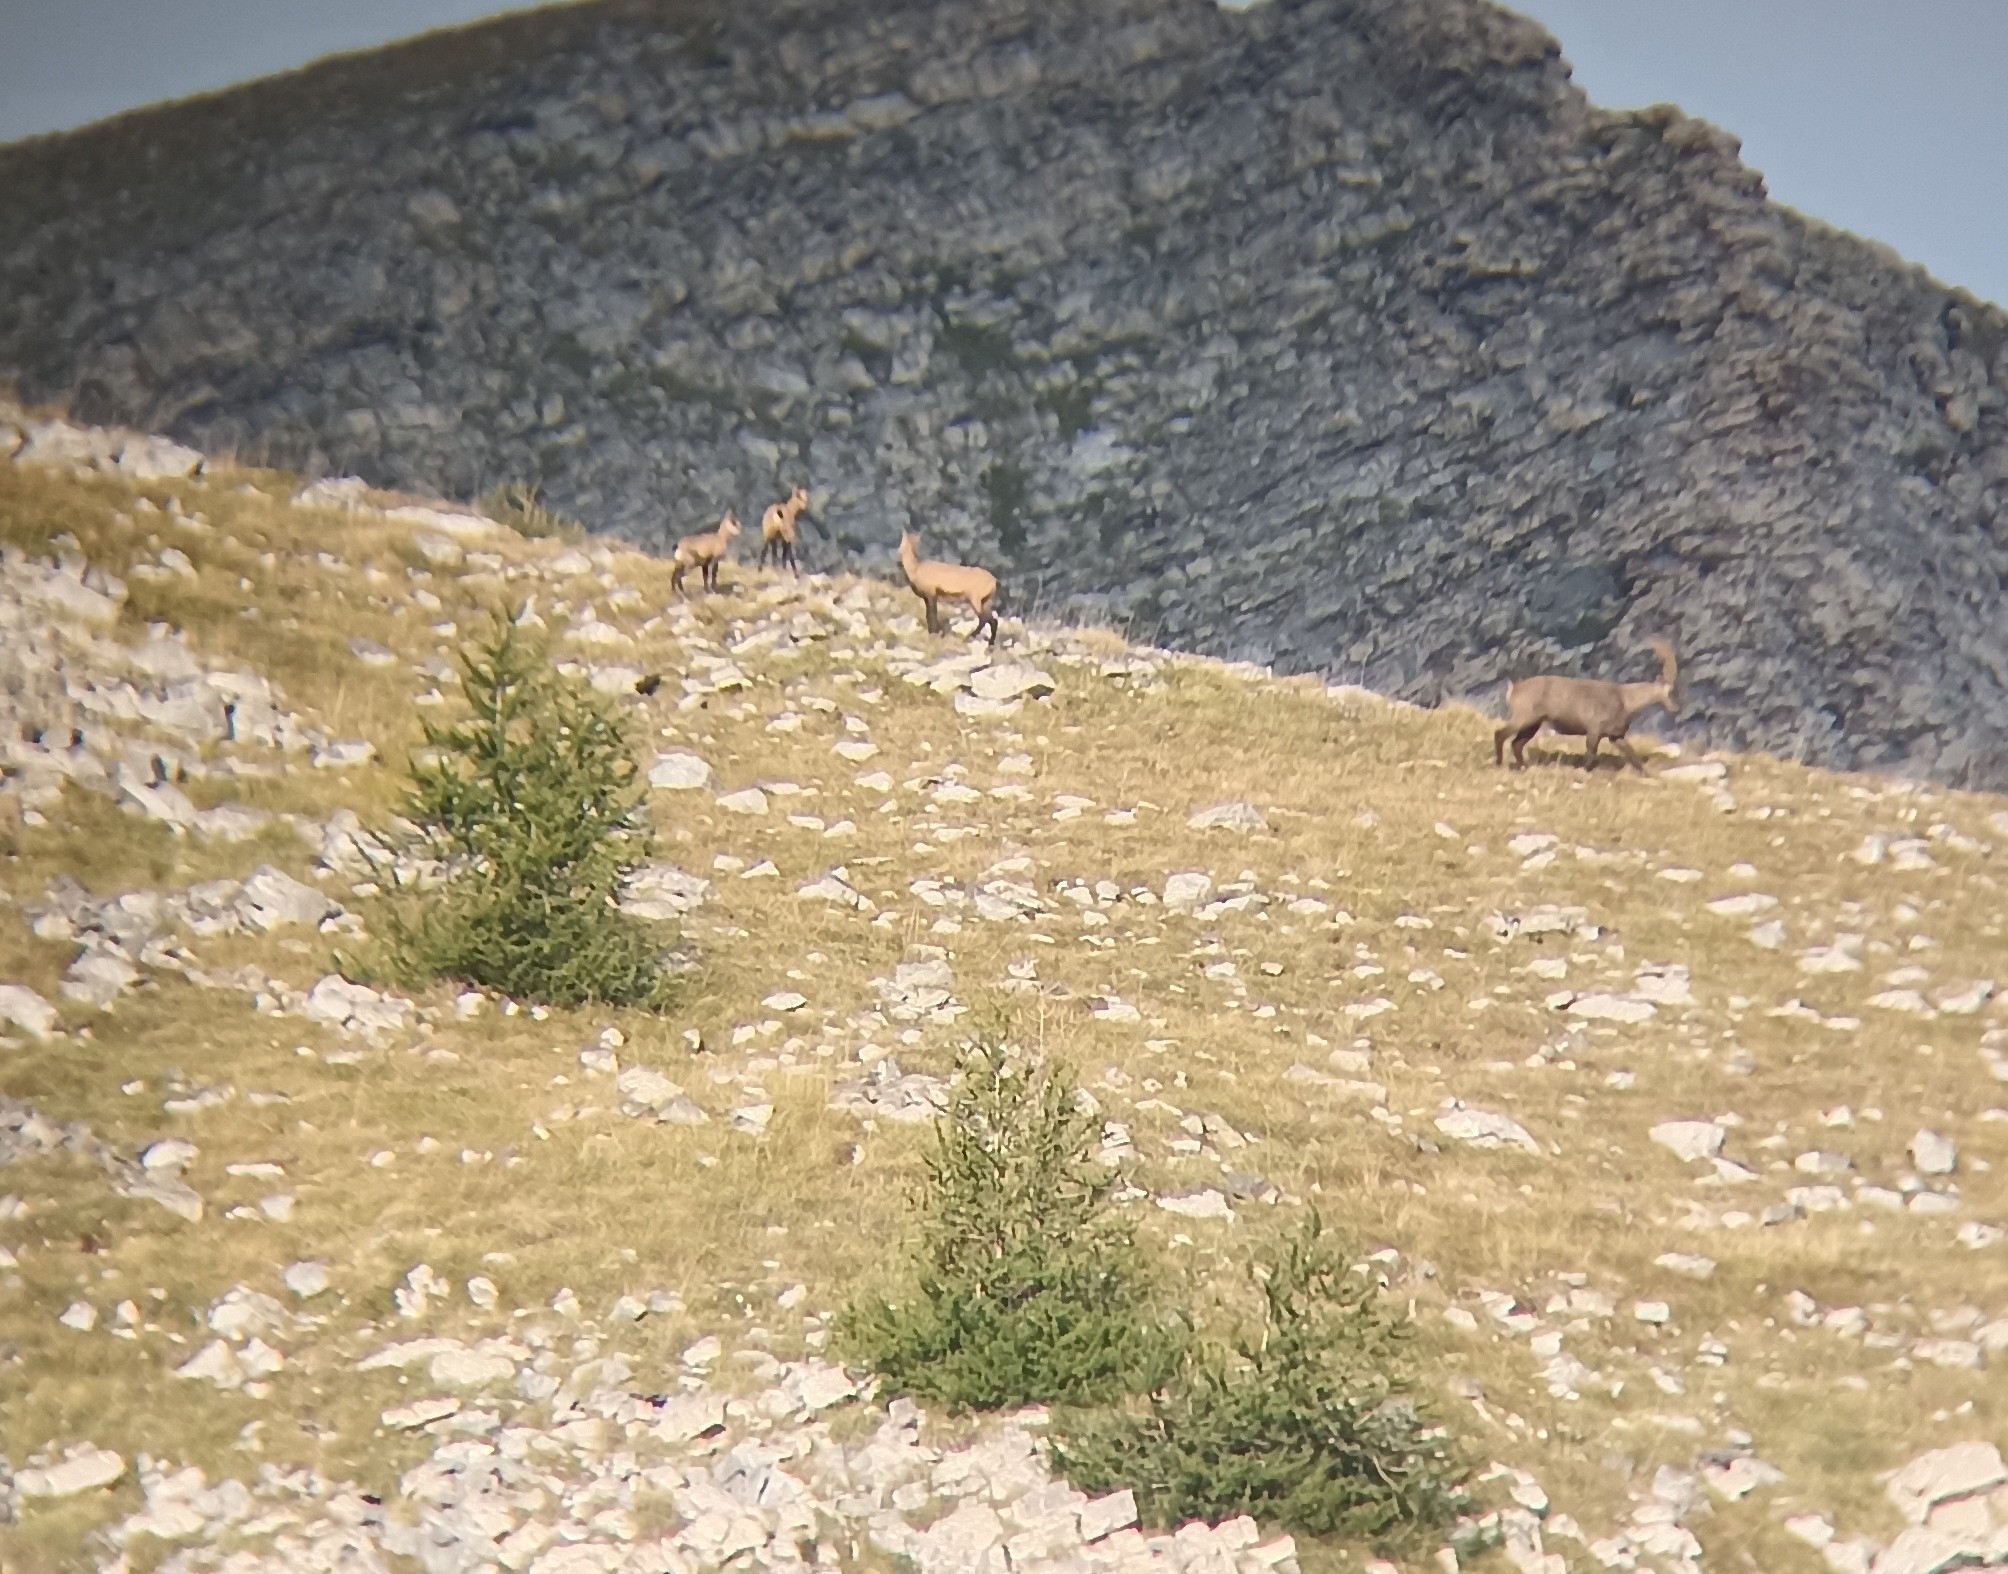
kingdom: Animalia
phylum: Chordata
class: Mammalia
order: Artiodactyla
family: Bovidae
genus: Rupicapra
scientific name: Rupicapra rupicapra
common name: Chamois
